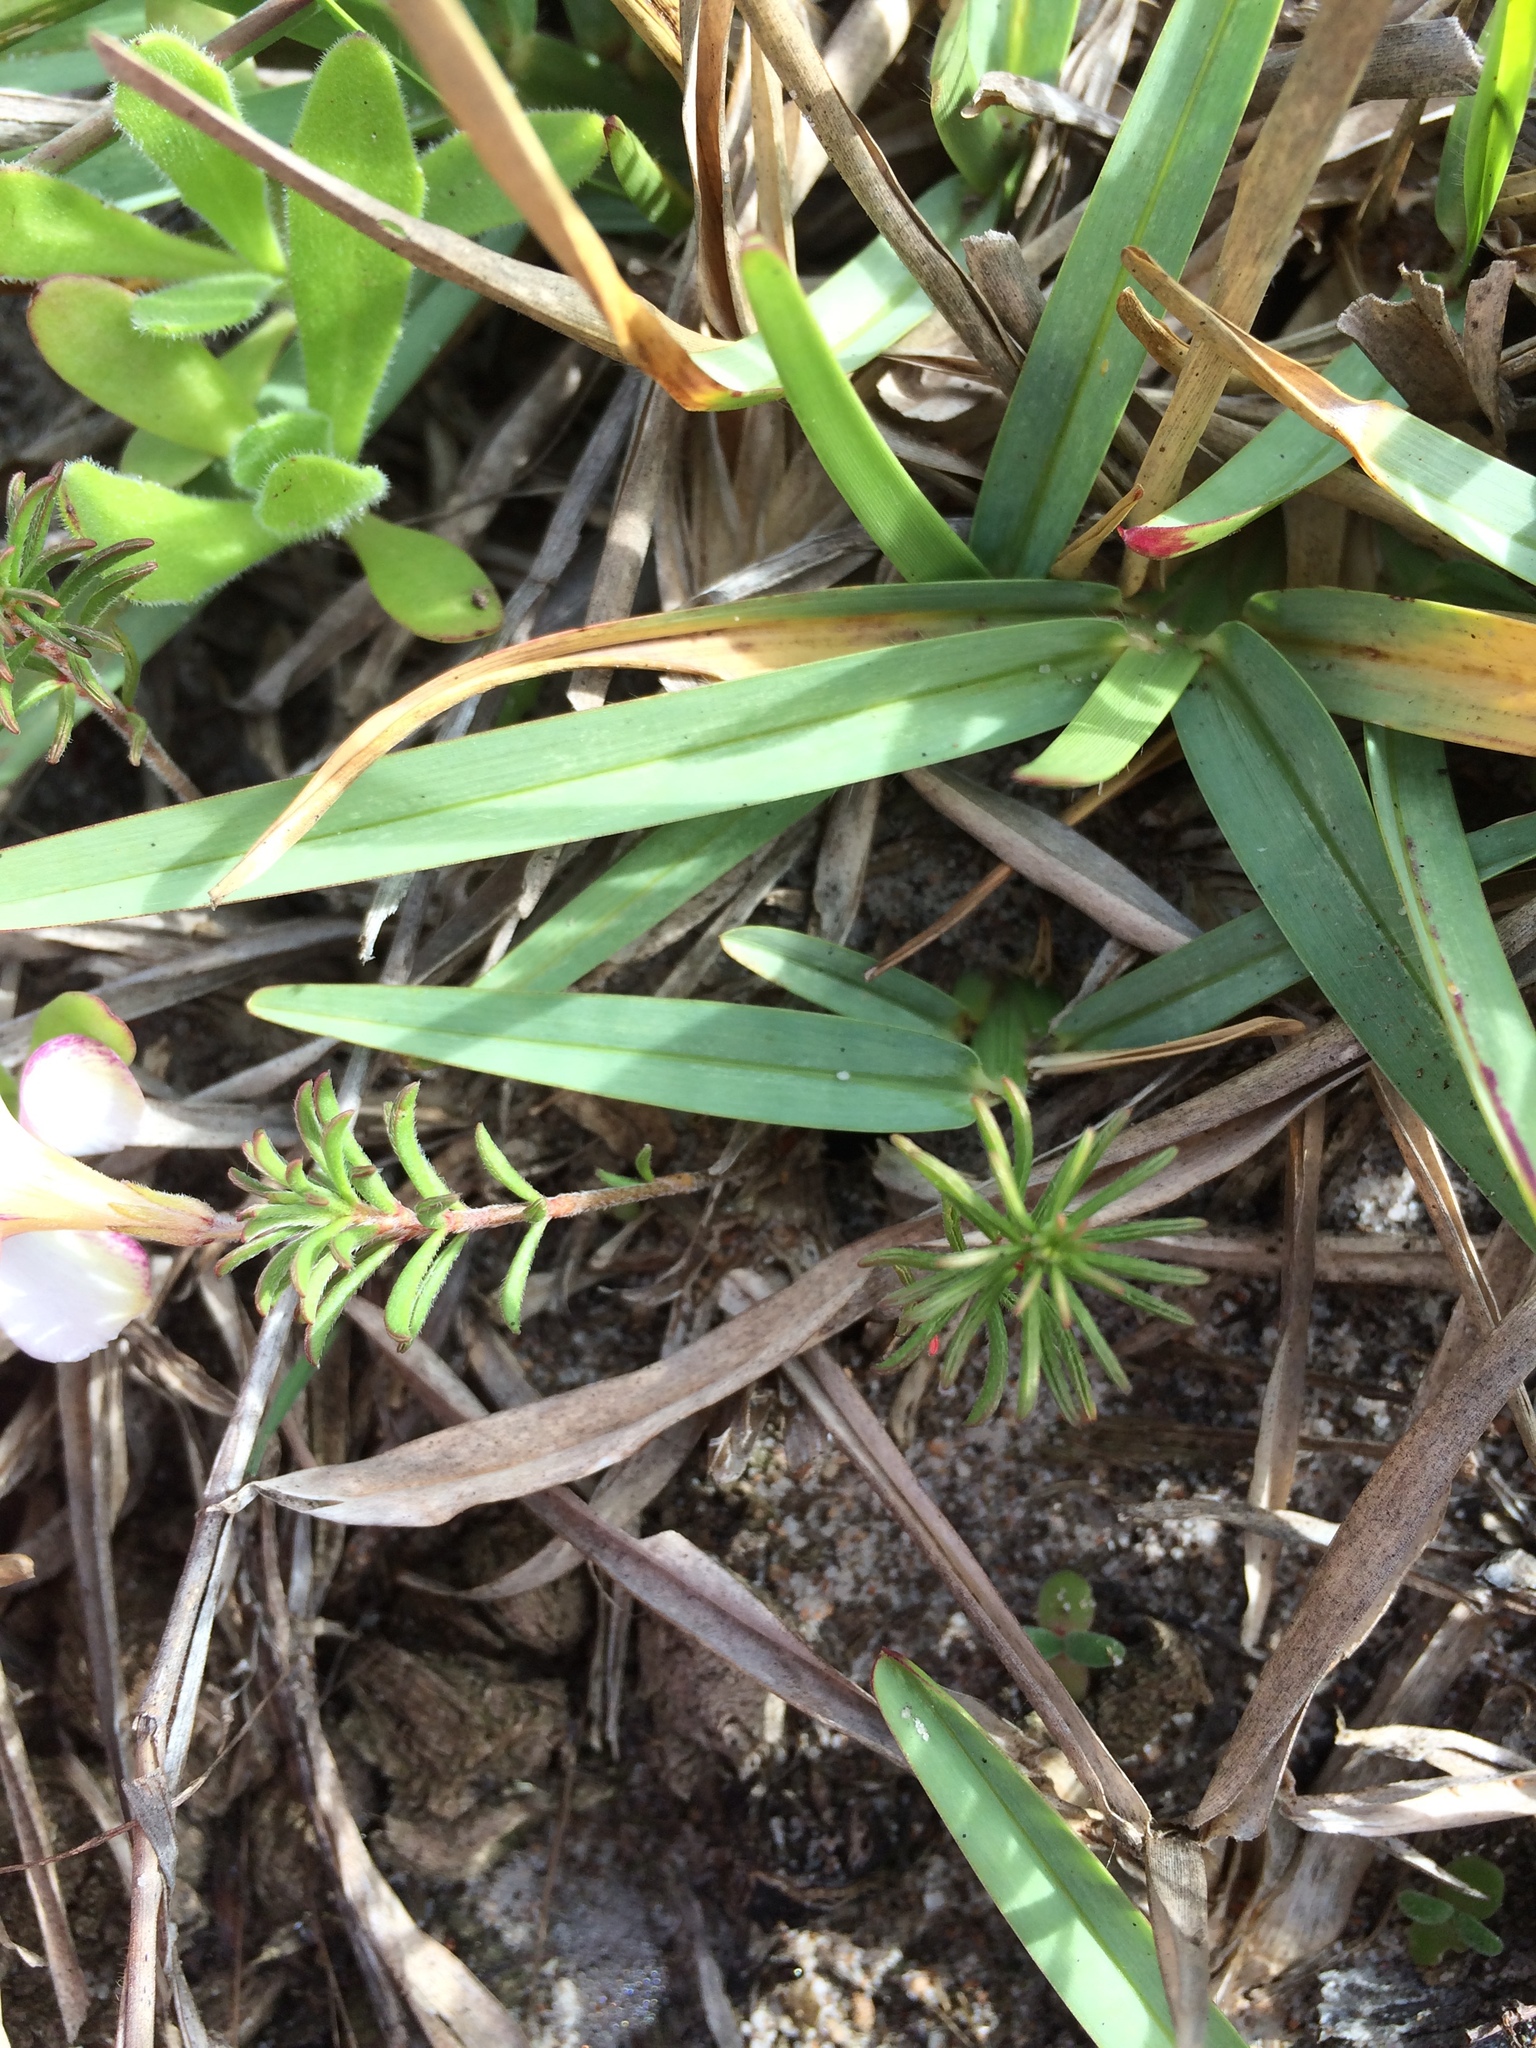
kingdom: Plantae
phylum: Tracheophyta
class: Magnoliopsida
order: Oxalidales
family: Oxalidaceae
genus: Oxalis
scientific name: Oxalis hirta
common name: Tropical woodsorrel
